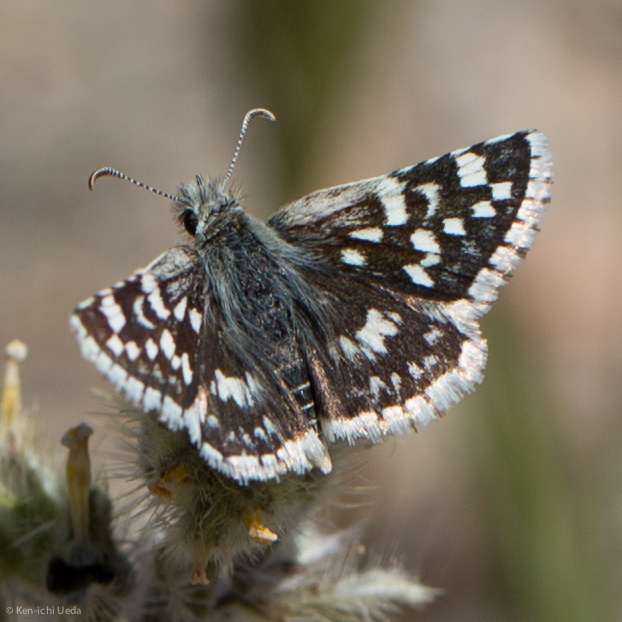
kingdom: Animalia
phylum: Arthropoda
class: Insecta
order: Lepidoptera
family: Hesperiidae
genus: Pyrgus
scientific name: Pyrgus scriptura
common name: Small checkered-skipper
